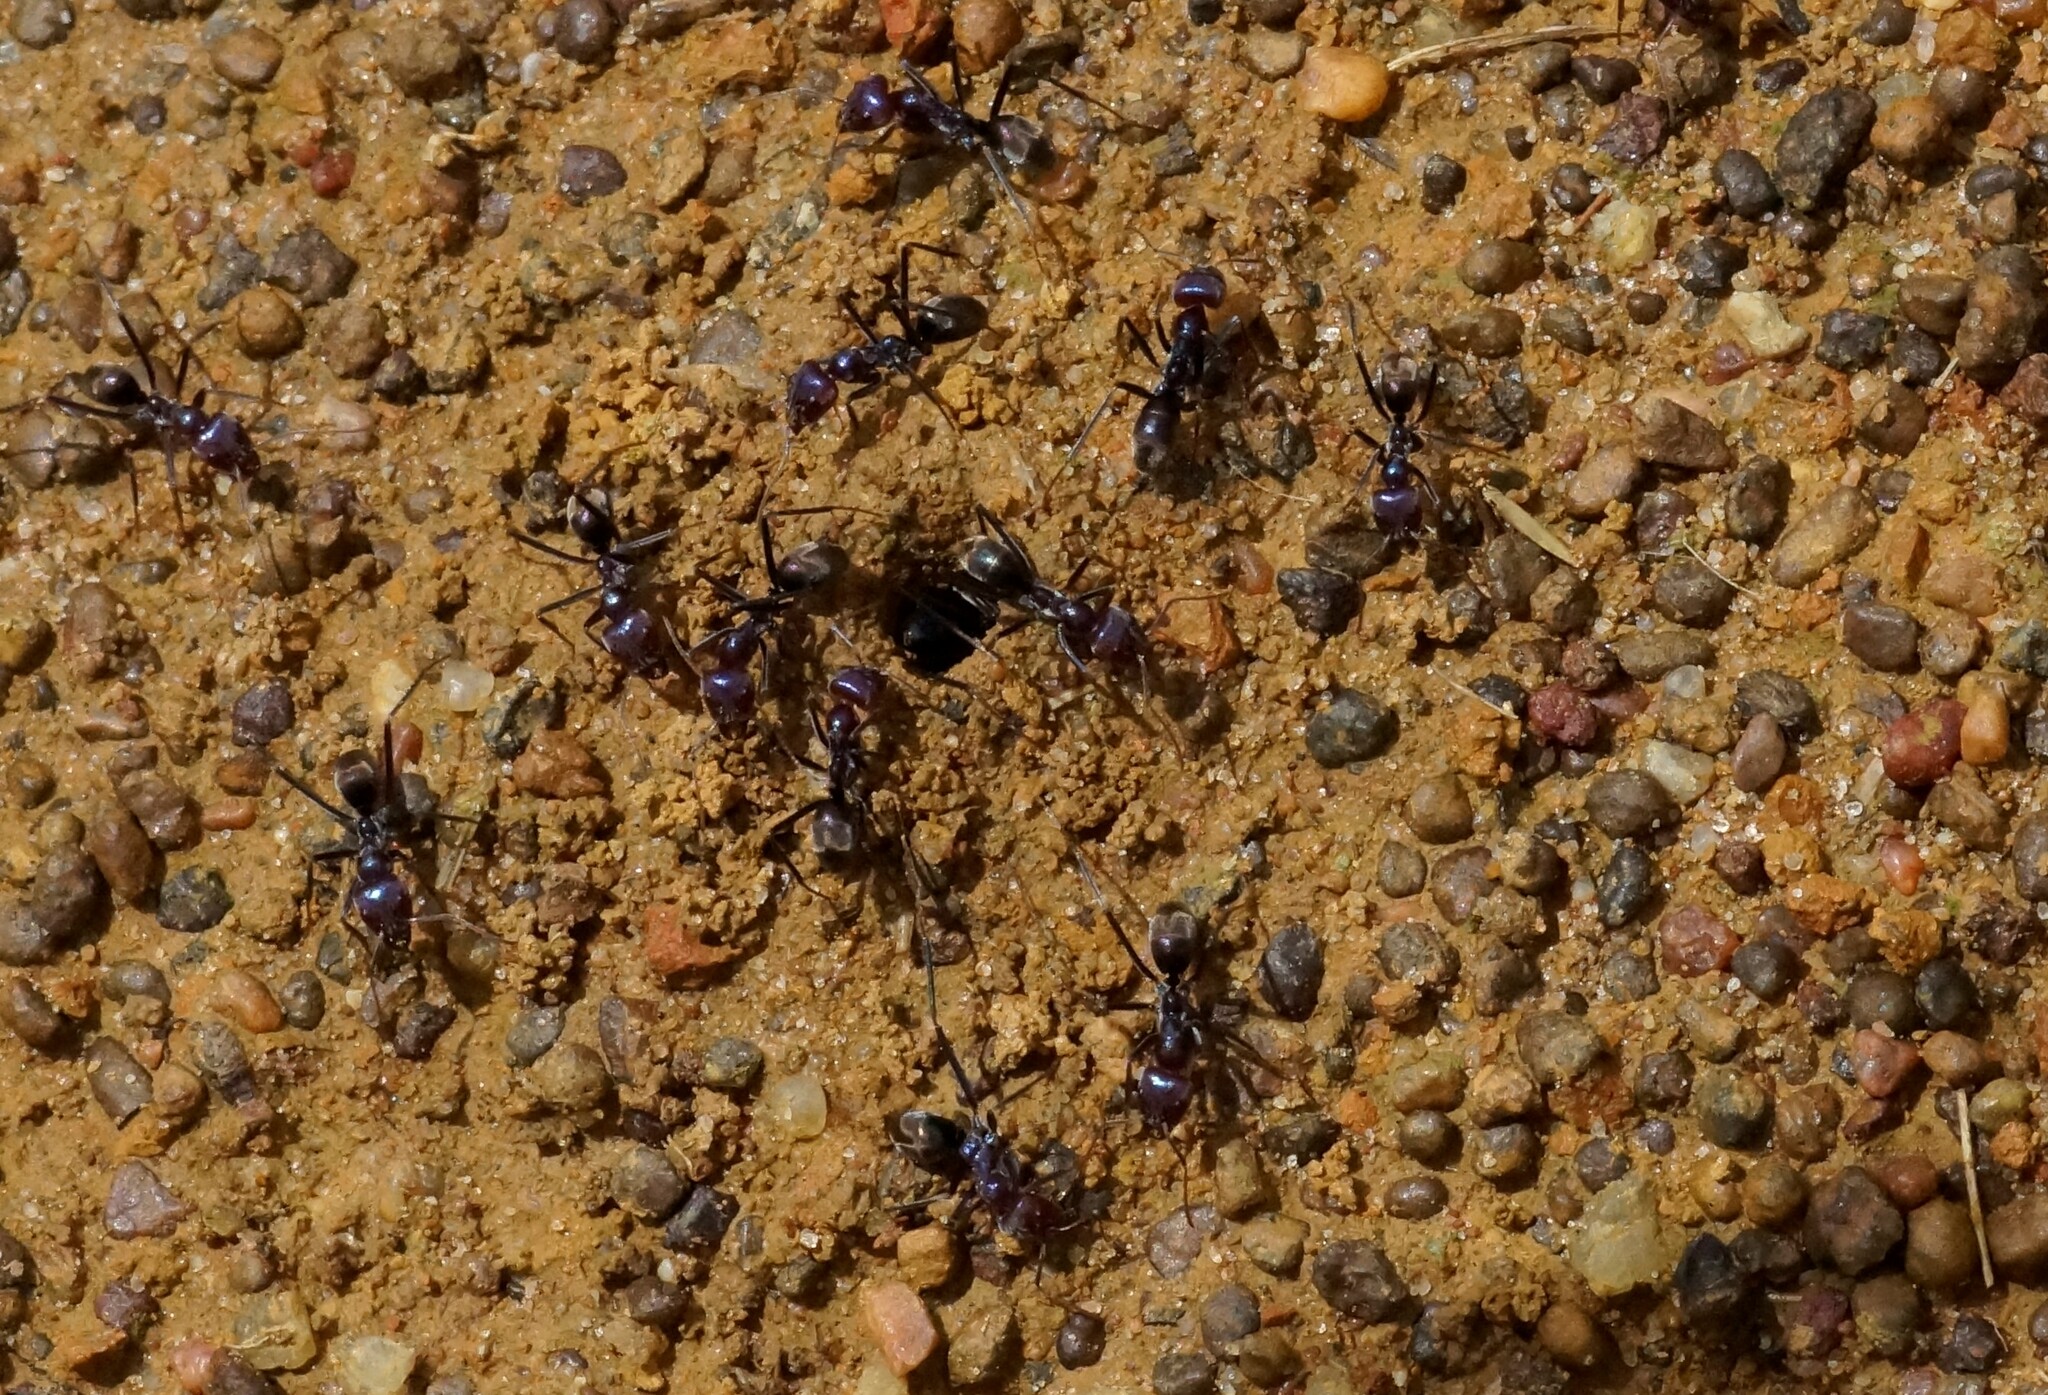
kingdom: Animalia
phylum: Arthropoda
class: Insecta
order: Hymenoptera
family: Formicidae
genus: Iridomyrmex
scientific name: Iridomyrmex purpureus
